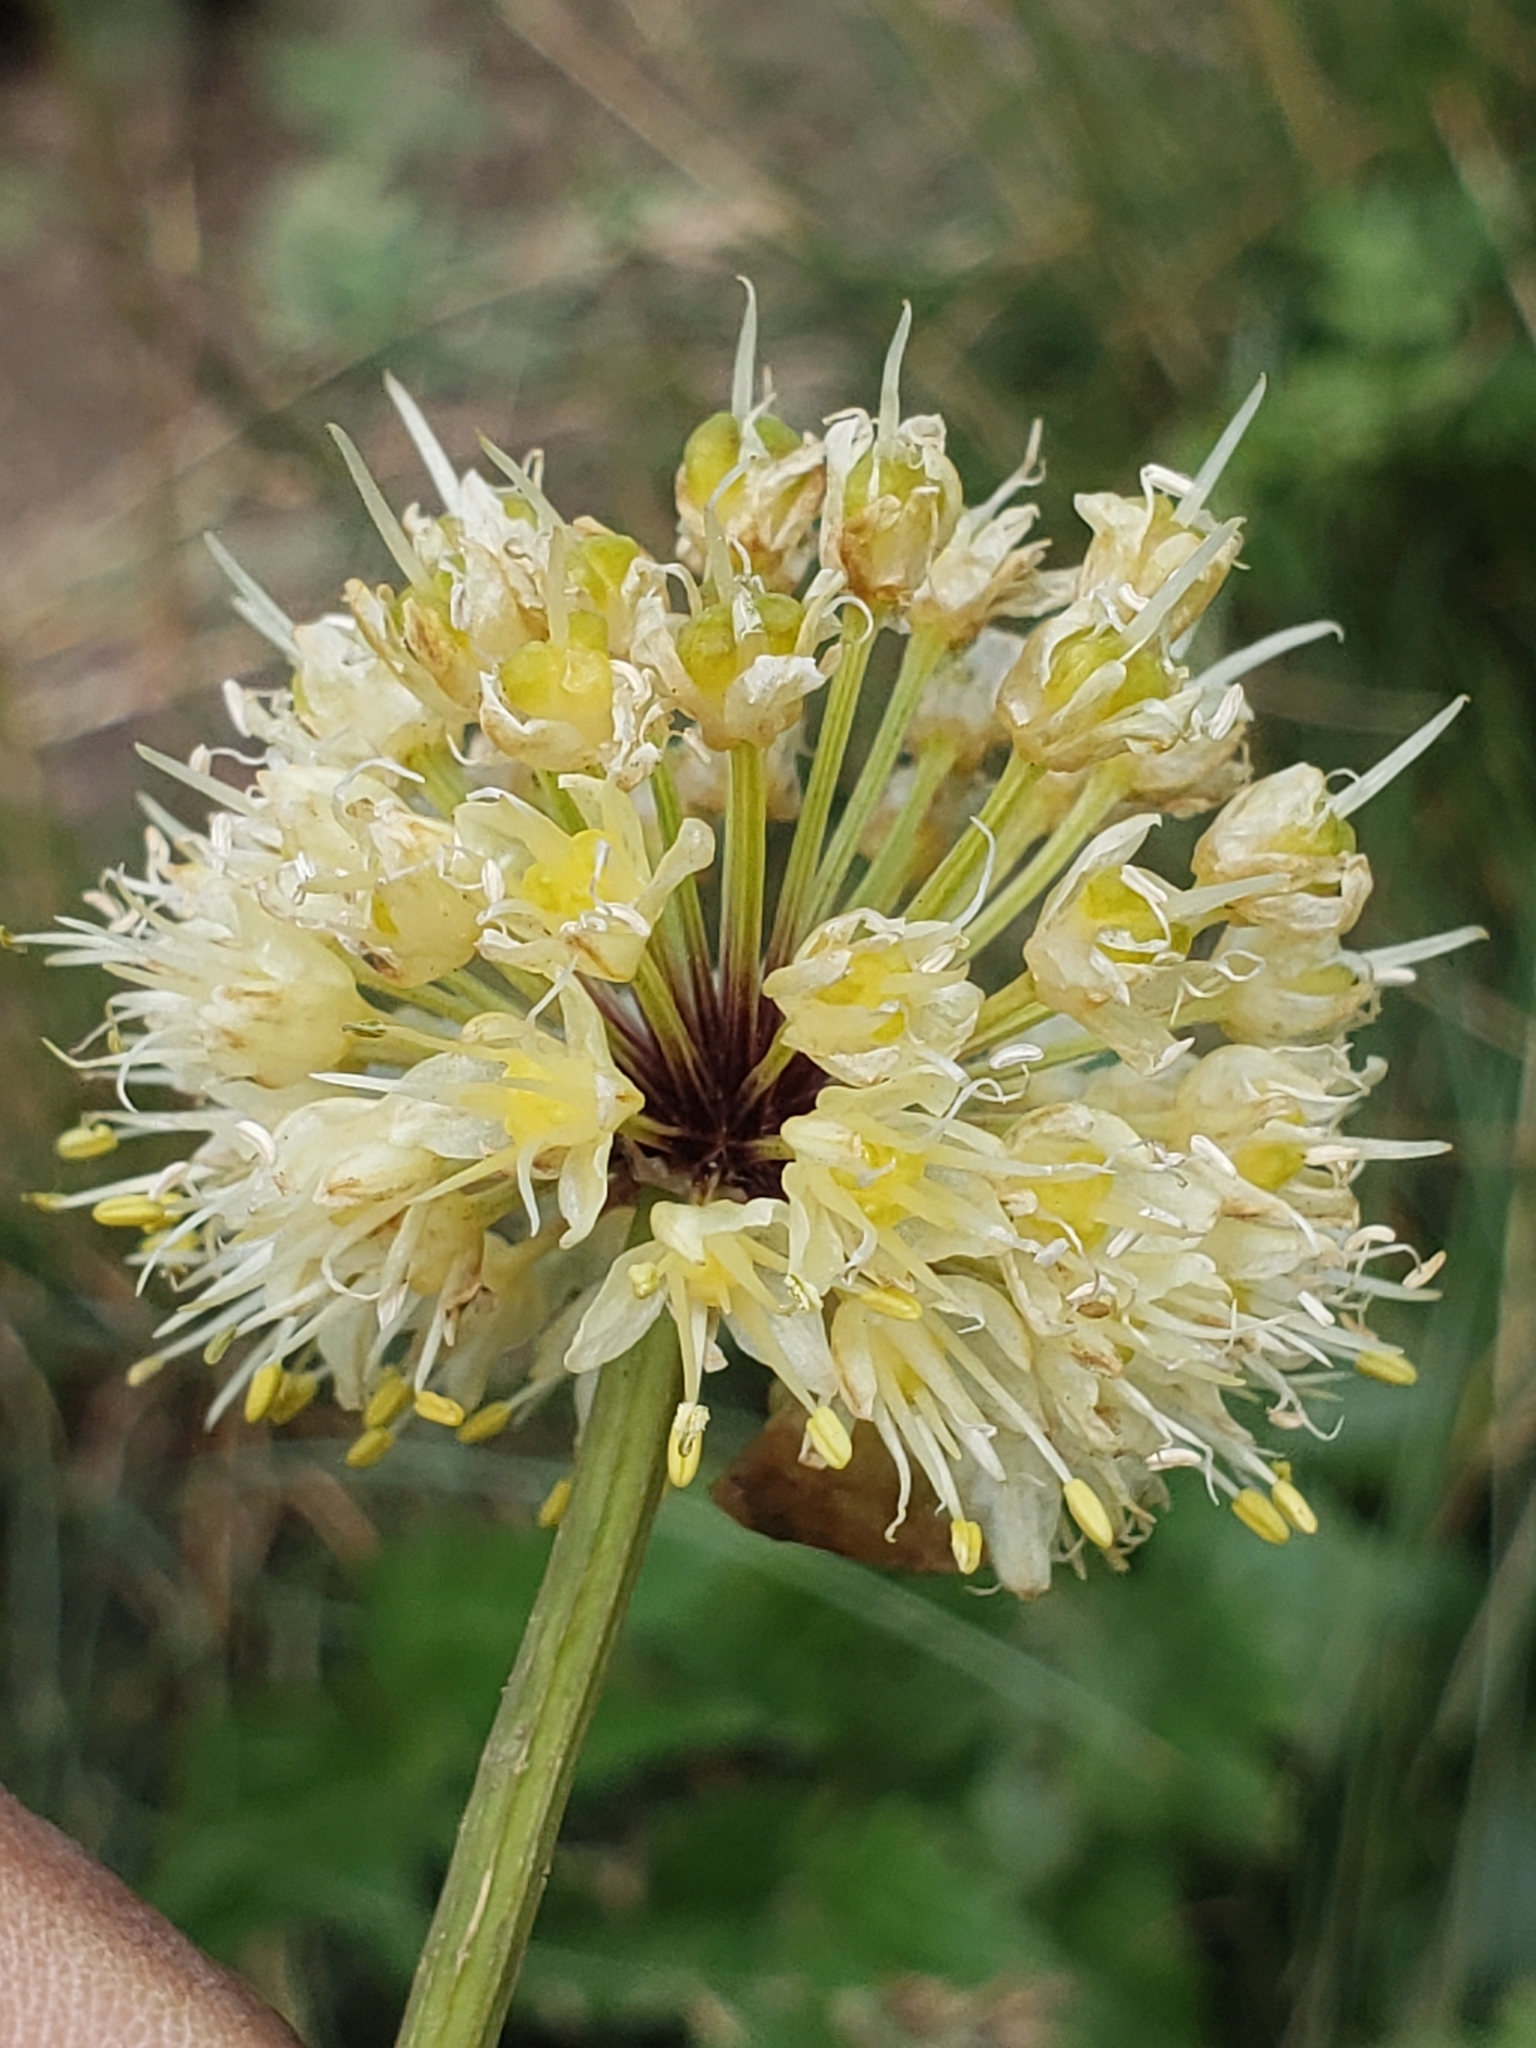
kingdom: Plantae
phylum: Tracheophyta
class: Liliopsida
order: Asparagales
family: Amaryllidaceae
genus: Allium
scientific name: Allium victorialis
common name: Alpine leek
